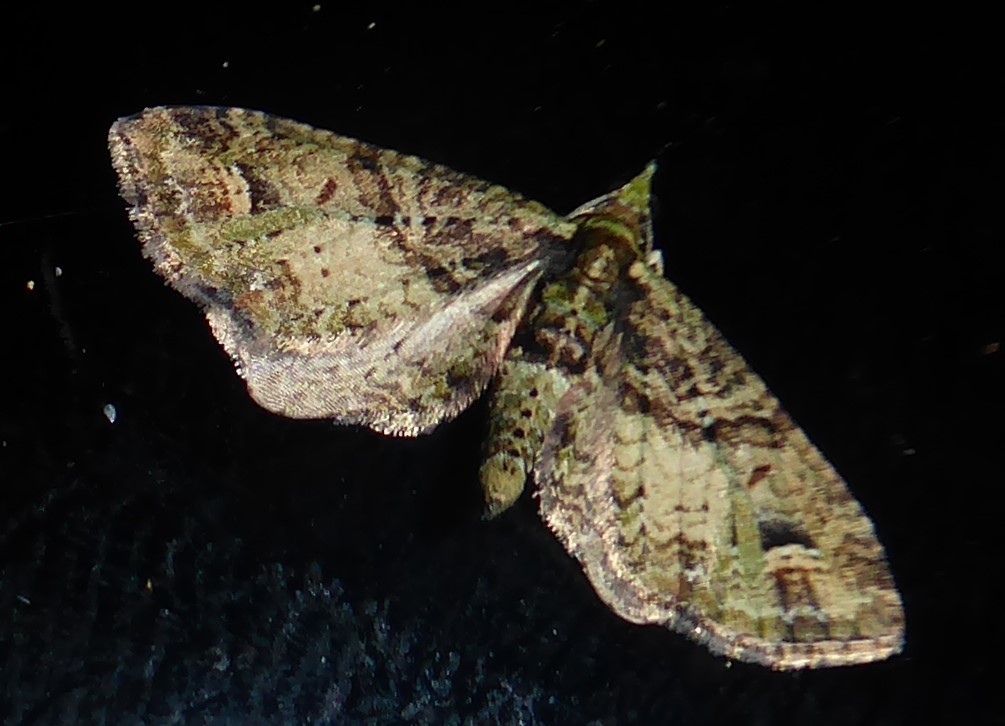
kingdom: Animalia
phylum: Arthropoda
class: Insecta
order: Lepidoptera
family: Geometridae
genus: Idaea
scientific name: Idaea mutanda
